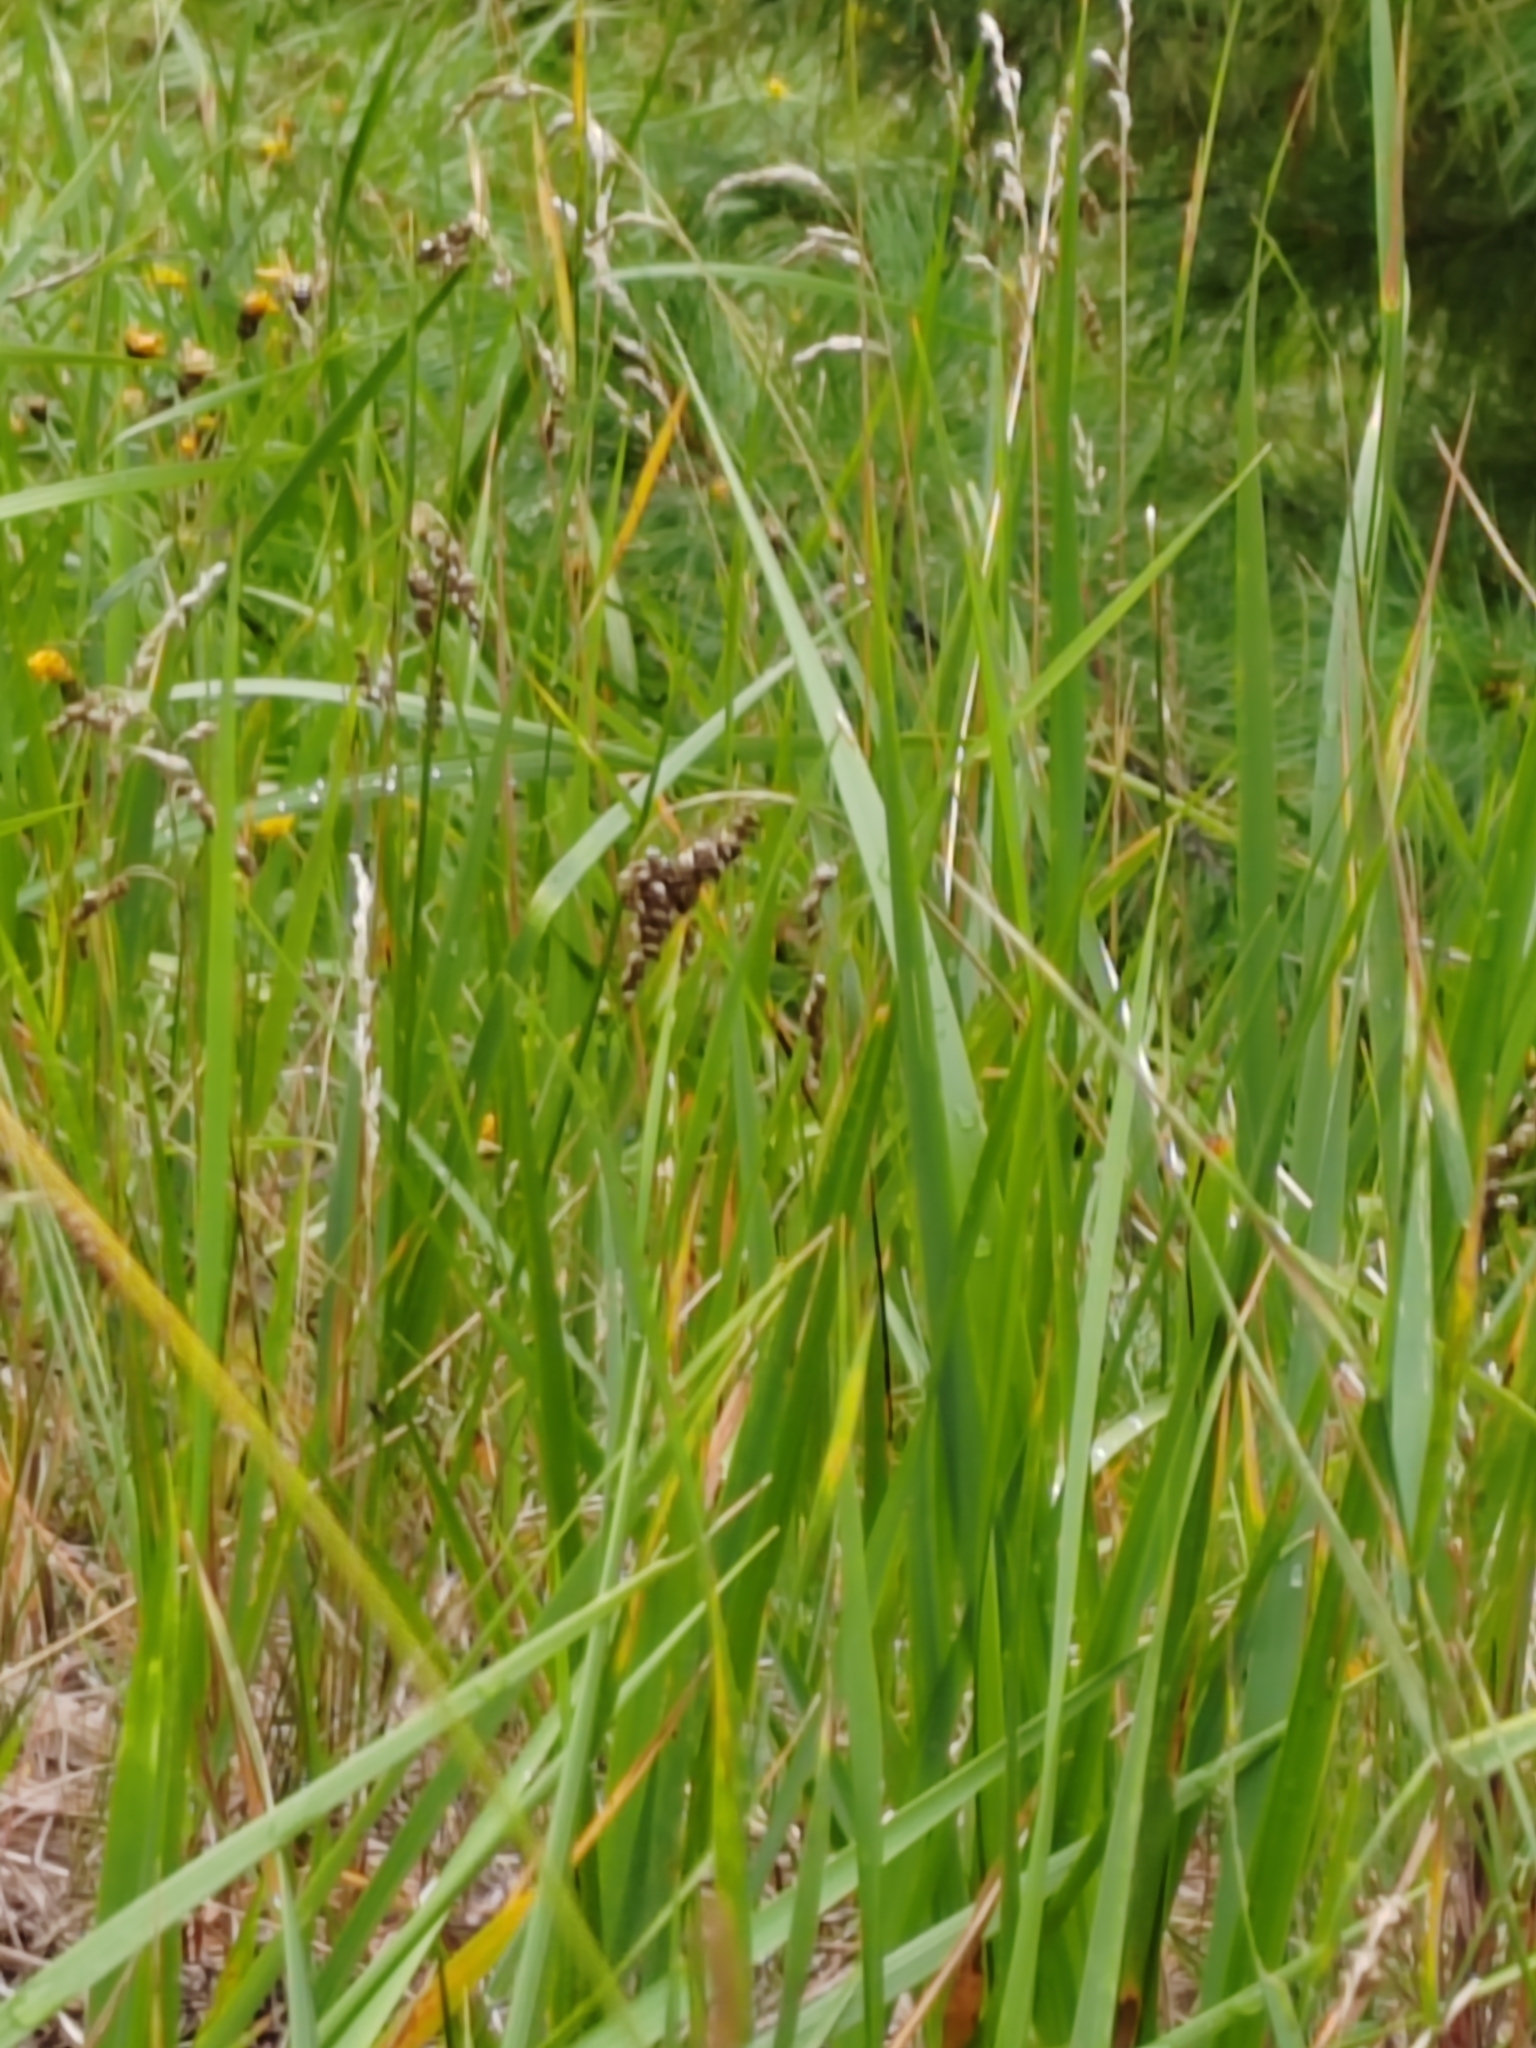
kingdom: Plantae
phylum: Tracheophyta
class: Liliopsida
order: Poales
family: Poaceae
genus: Anthoxanthum
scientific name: Anthoxanthum nitens
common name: Holy grass
